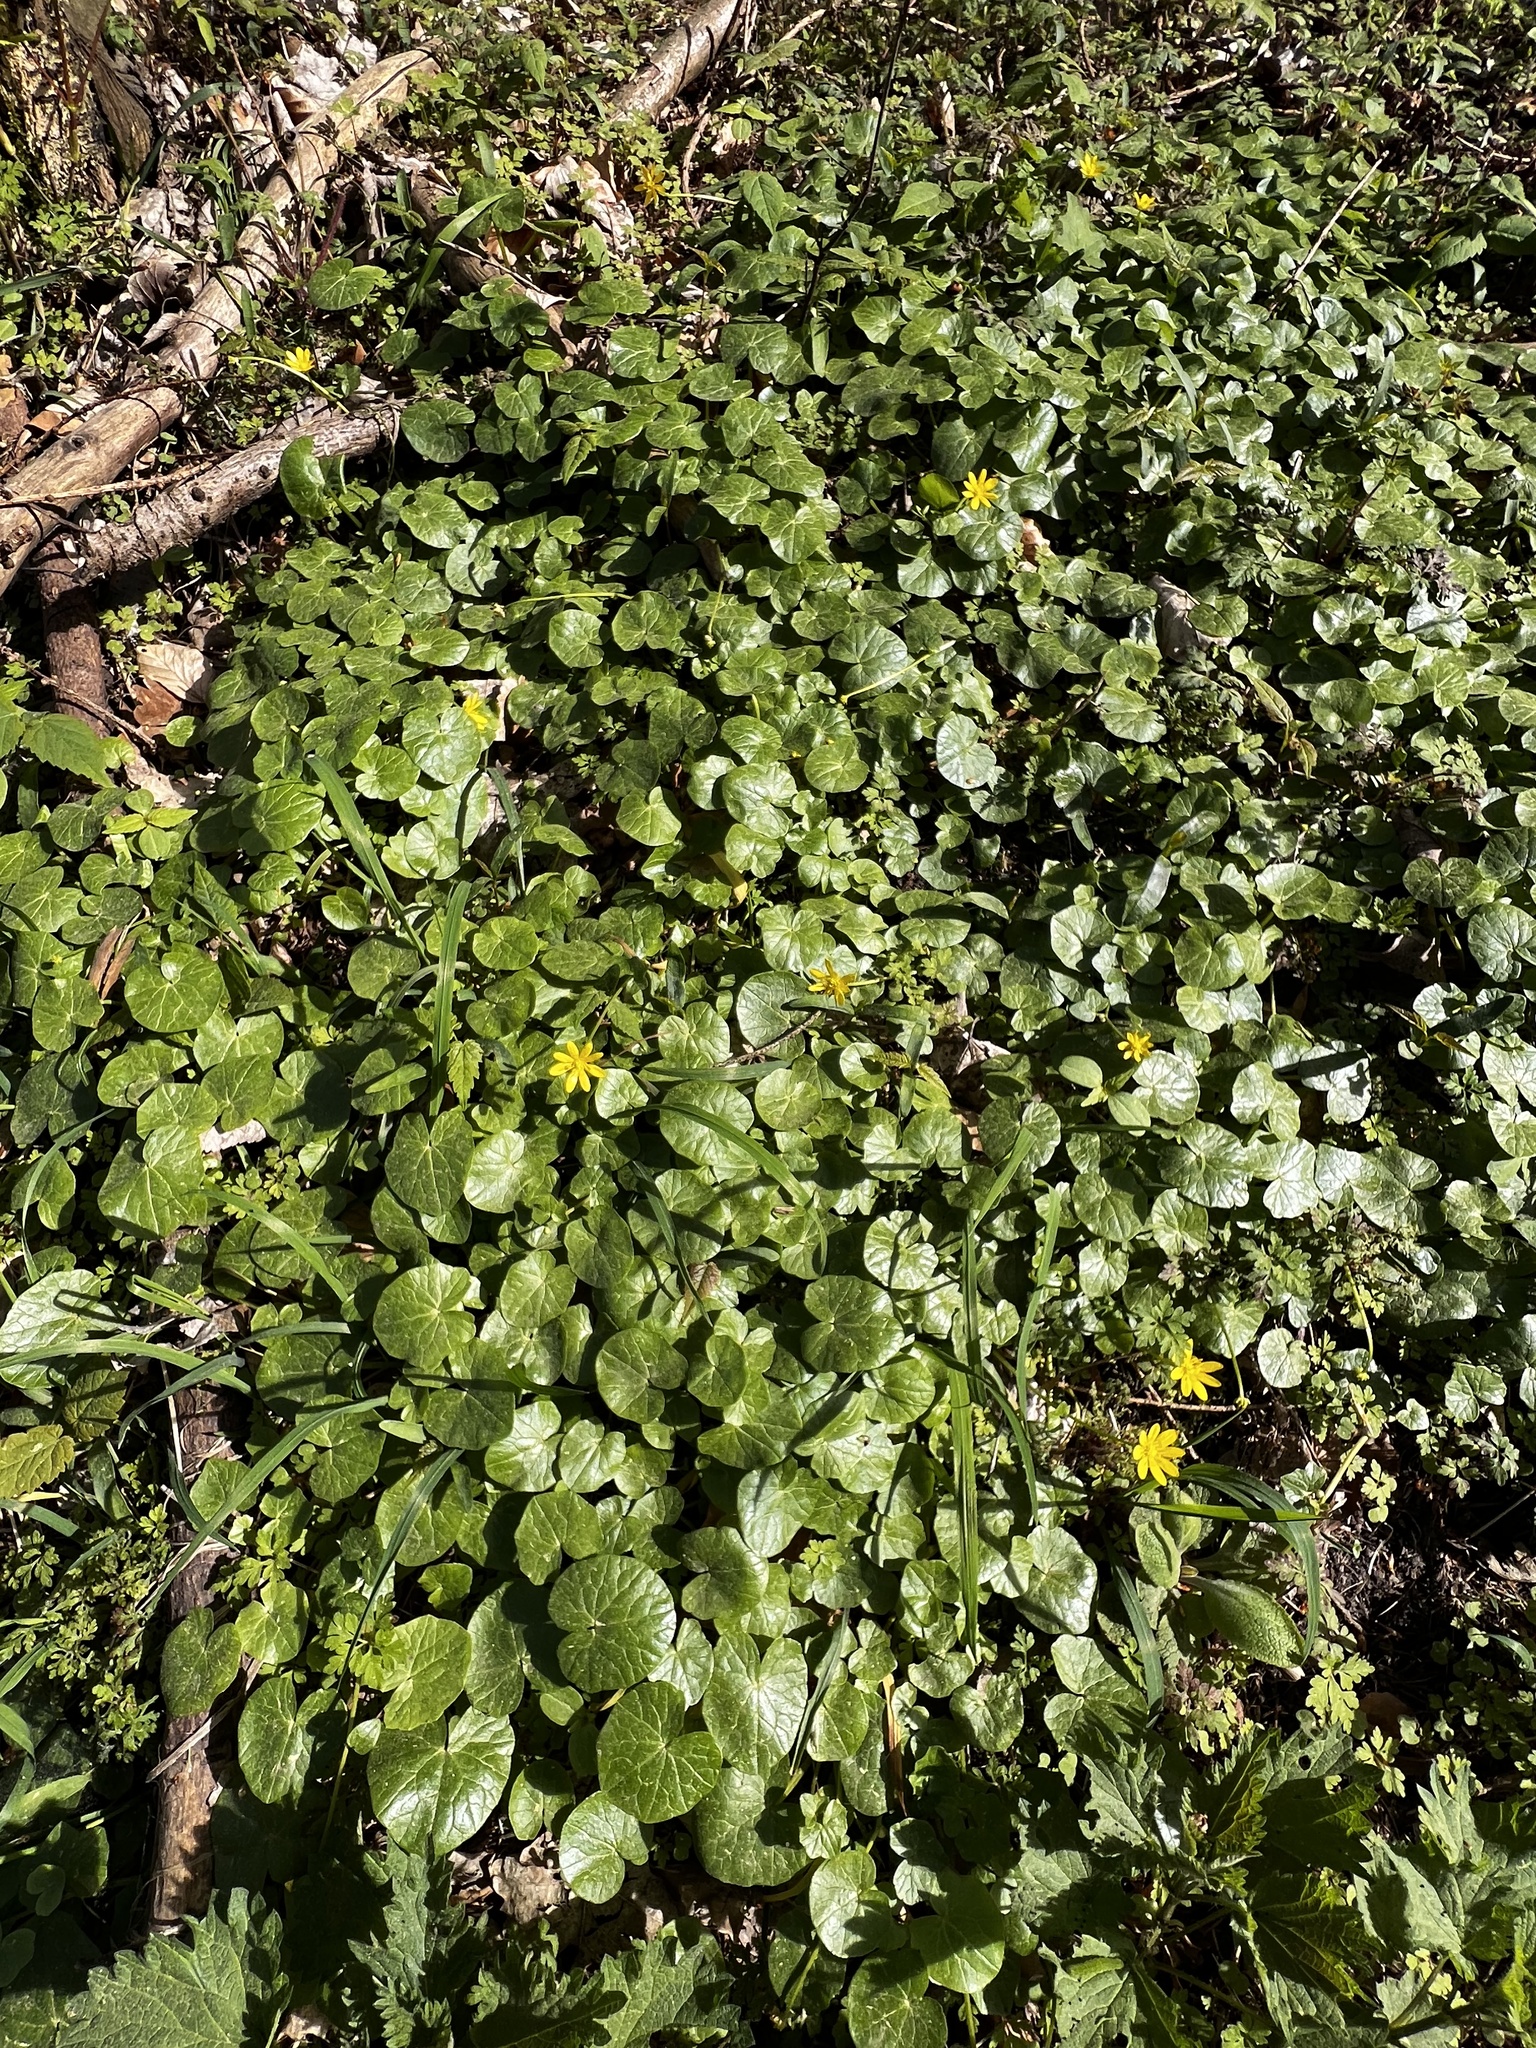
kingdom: Plantae
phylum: Tracheophyta
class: Magnoliopsida
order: Ranunculales
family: Ranunculaceae
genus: Ficaria
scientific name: Ficaria verna
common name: Lesser celandine
